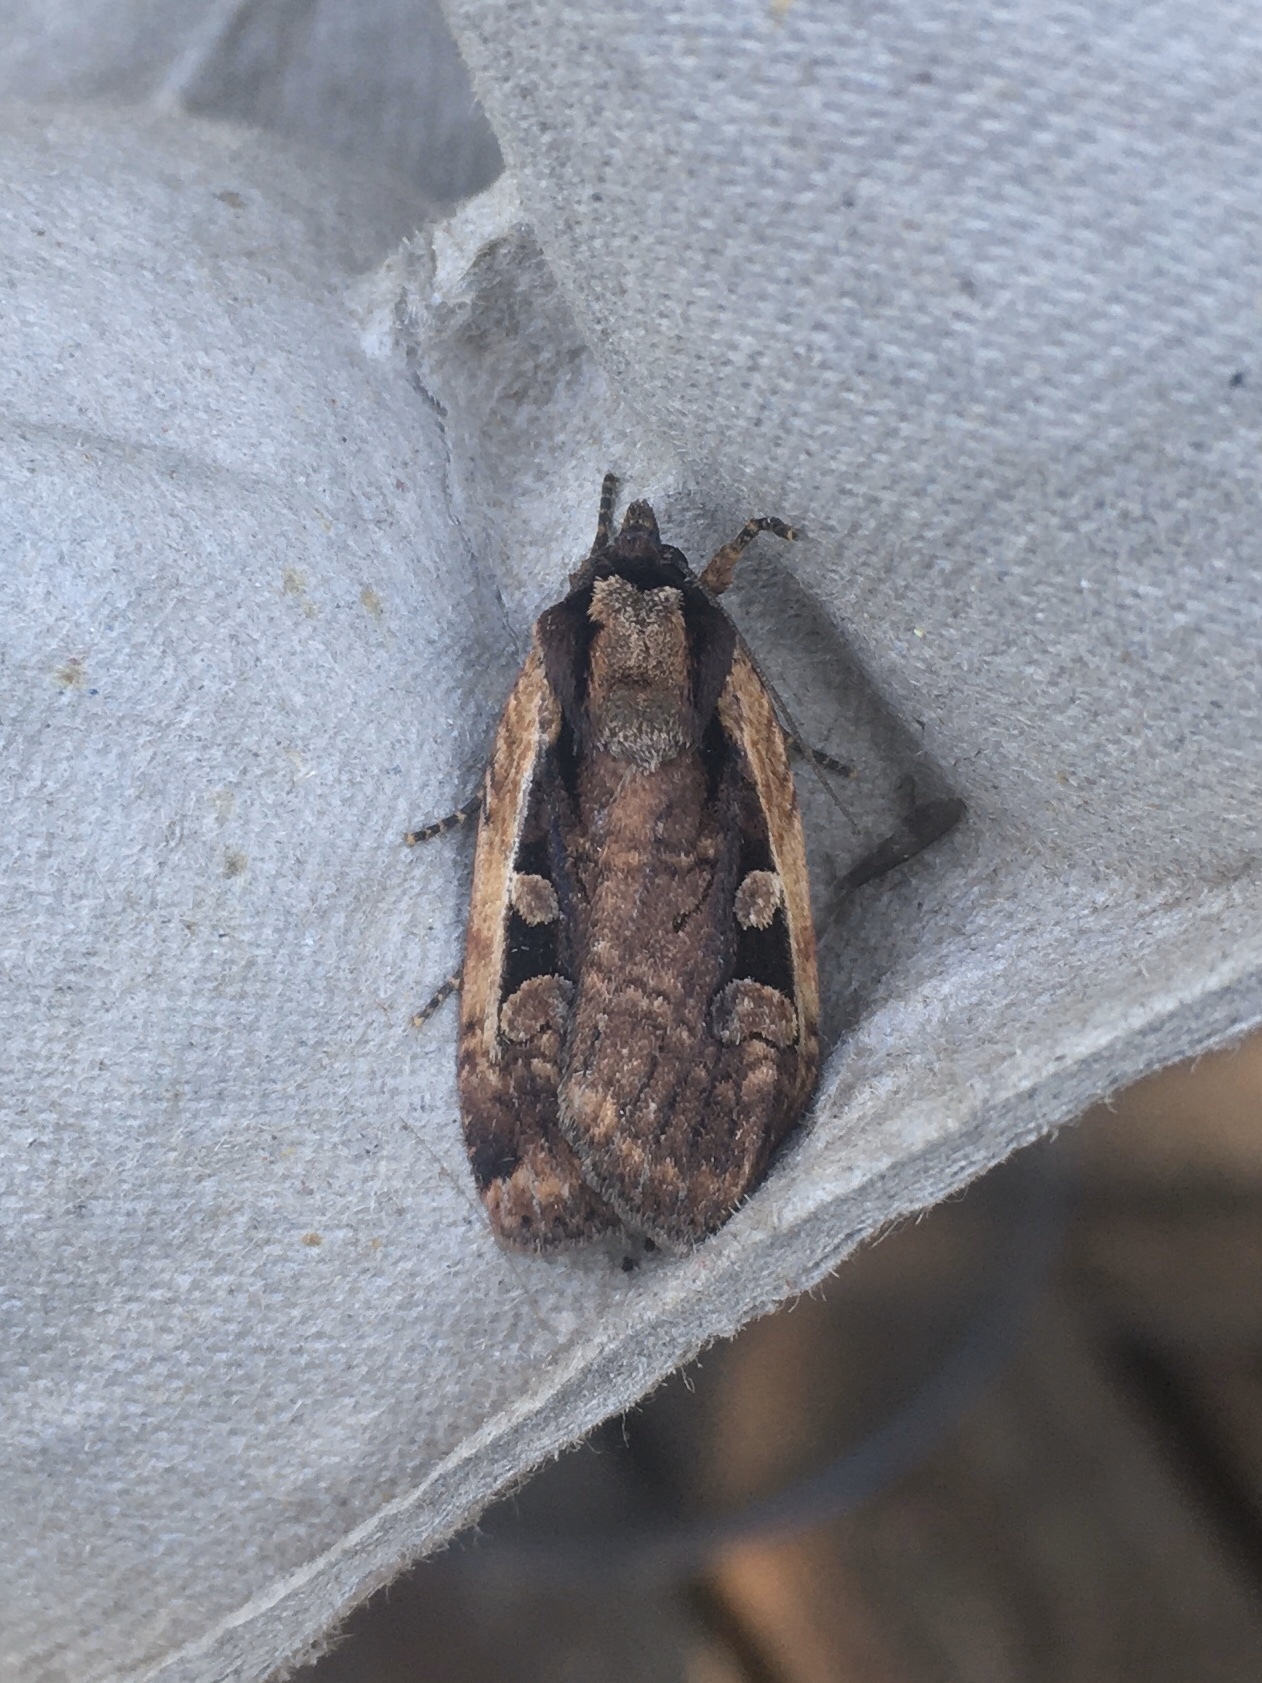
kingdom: Animalia
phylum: Arthropoda
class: Insecta
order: Lepidoptera
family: Noctuidae
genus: Eueretagrotis
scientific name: Eueretagrotis sigmoides
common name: Sigmoid dart
